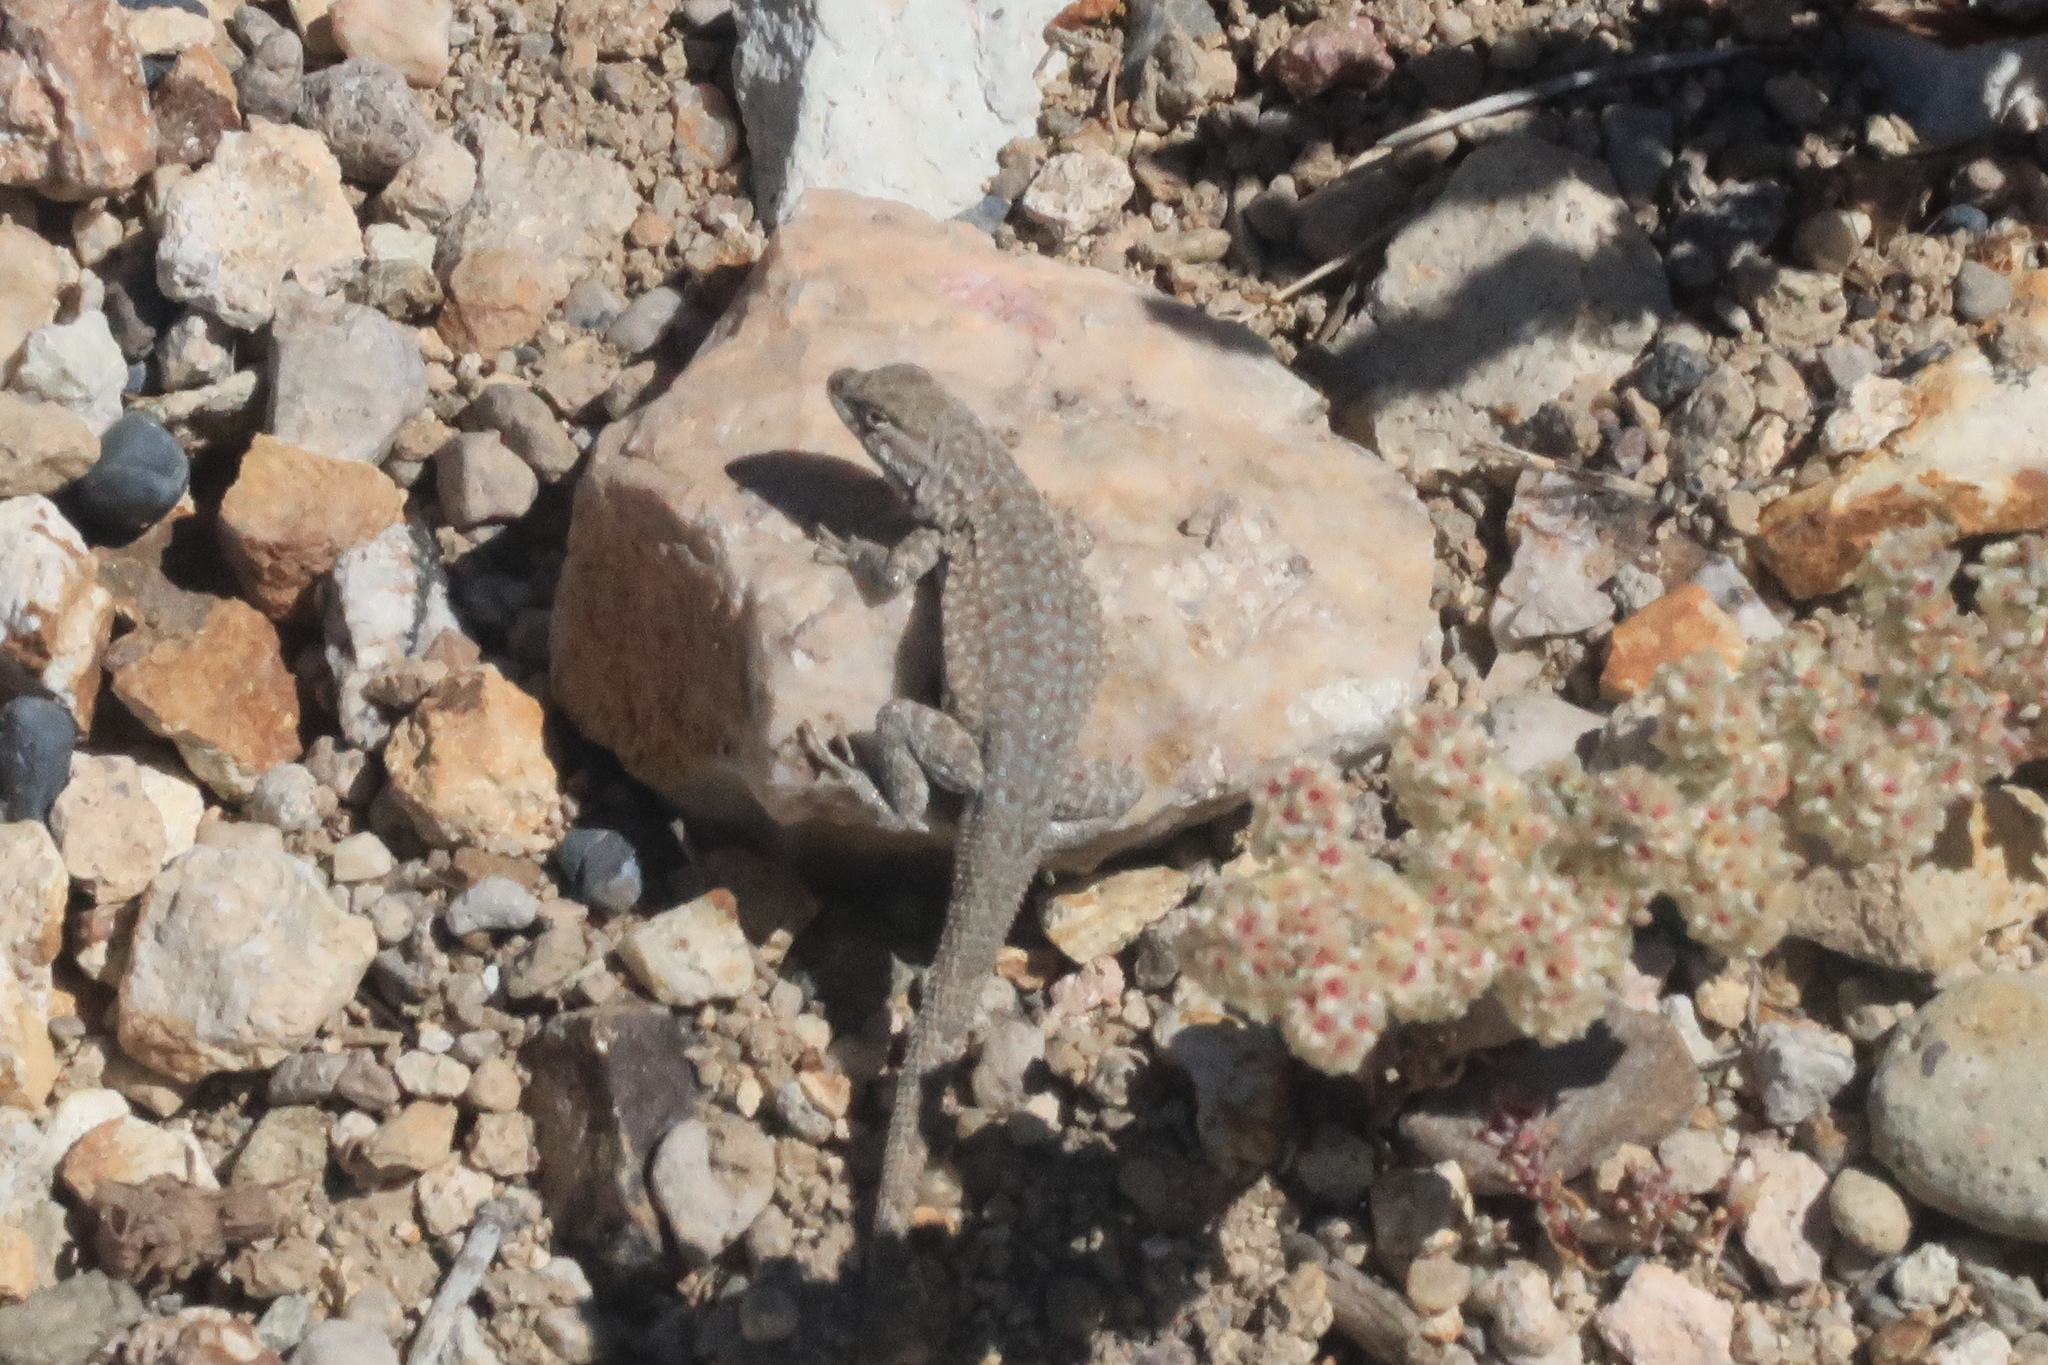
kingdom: Animalia
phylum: Chordata
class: Squamata
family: Phrynosomatidae
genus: Uta
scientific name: Uta stansburiana
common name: Side-blotched lizard
